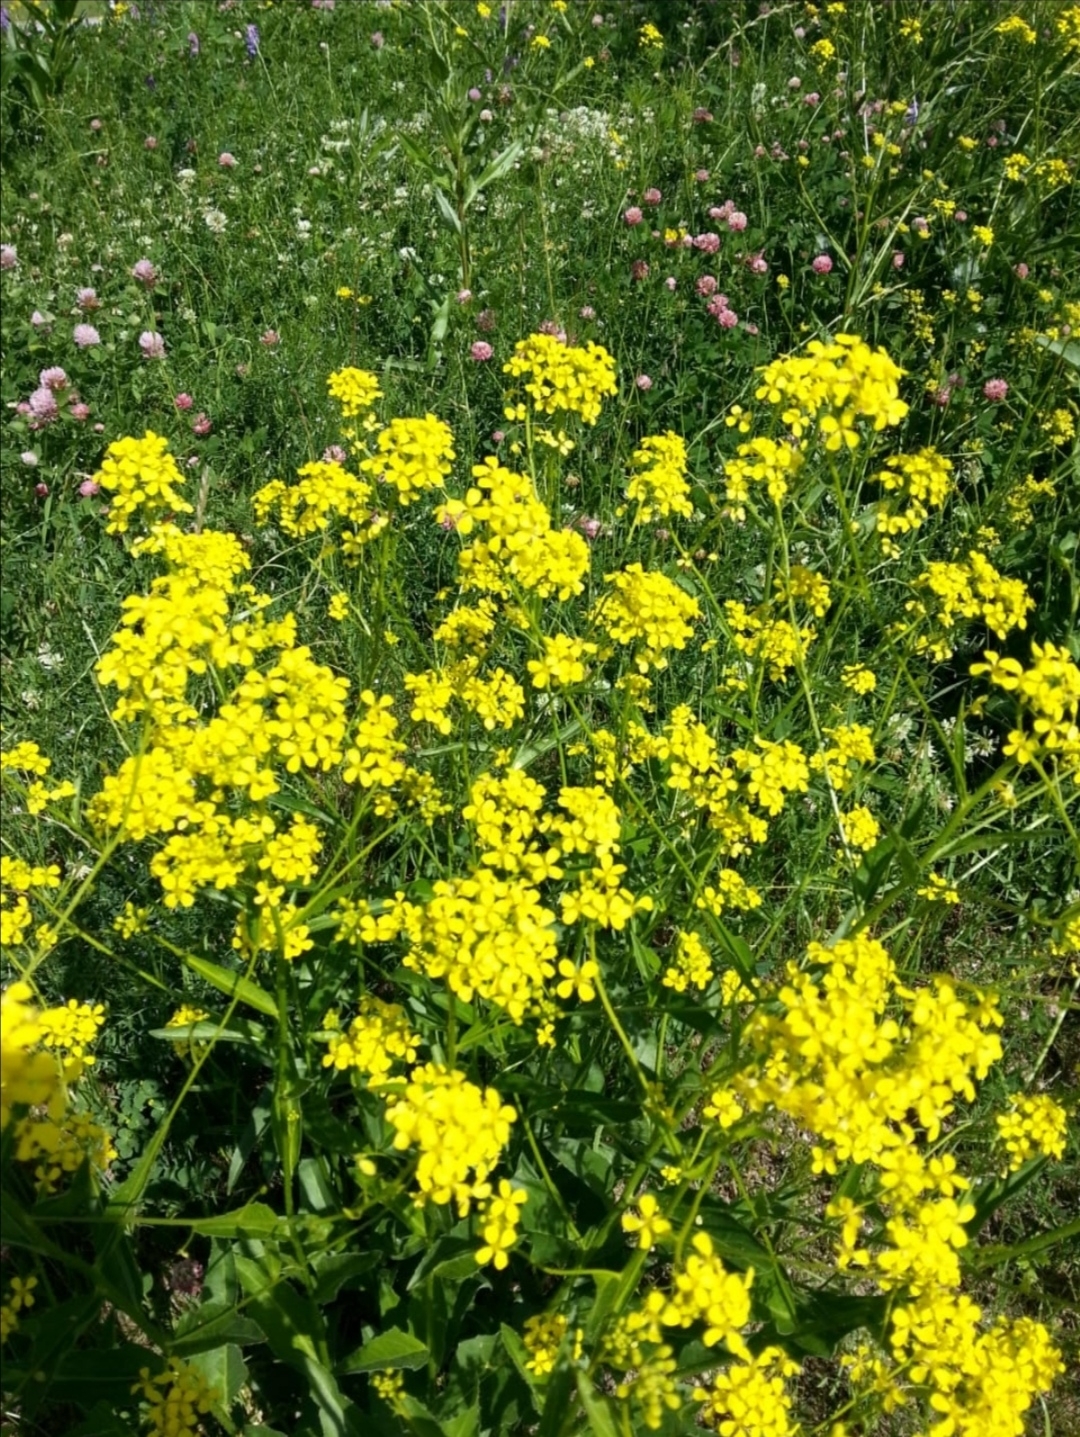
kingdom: Plantae
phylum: Tracheophyta
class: Magnoliopsida
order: Brassicales
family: Brassicaceae
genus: Bunias
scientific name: Bunias orientalis
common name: Warty-cabbage
